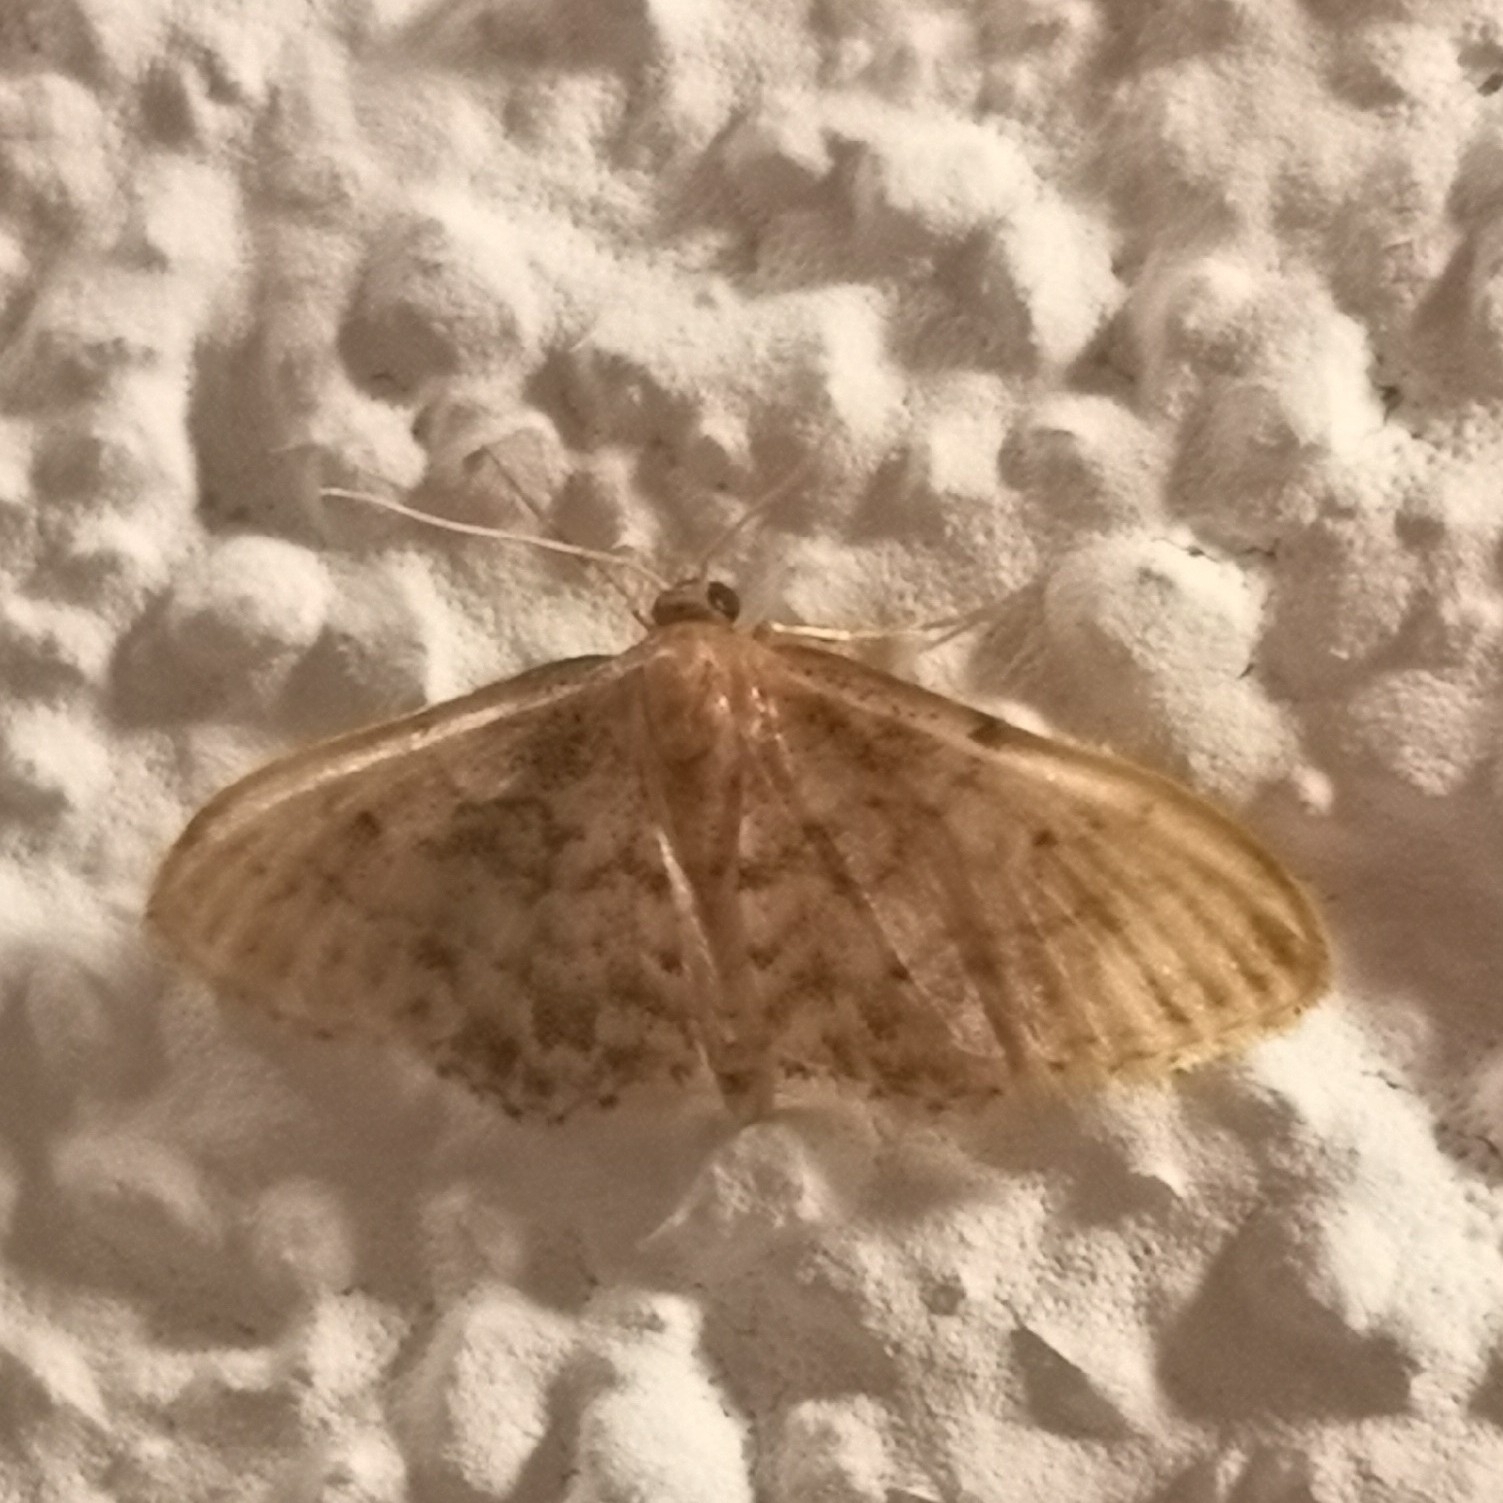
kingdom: Animalia
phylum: Arthropoda
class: Insecta
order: Lepidoptera
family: Geometridae
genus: Idaea
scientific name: Idaea inquinata
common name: Rusty wave
